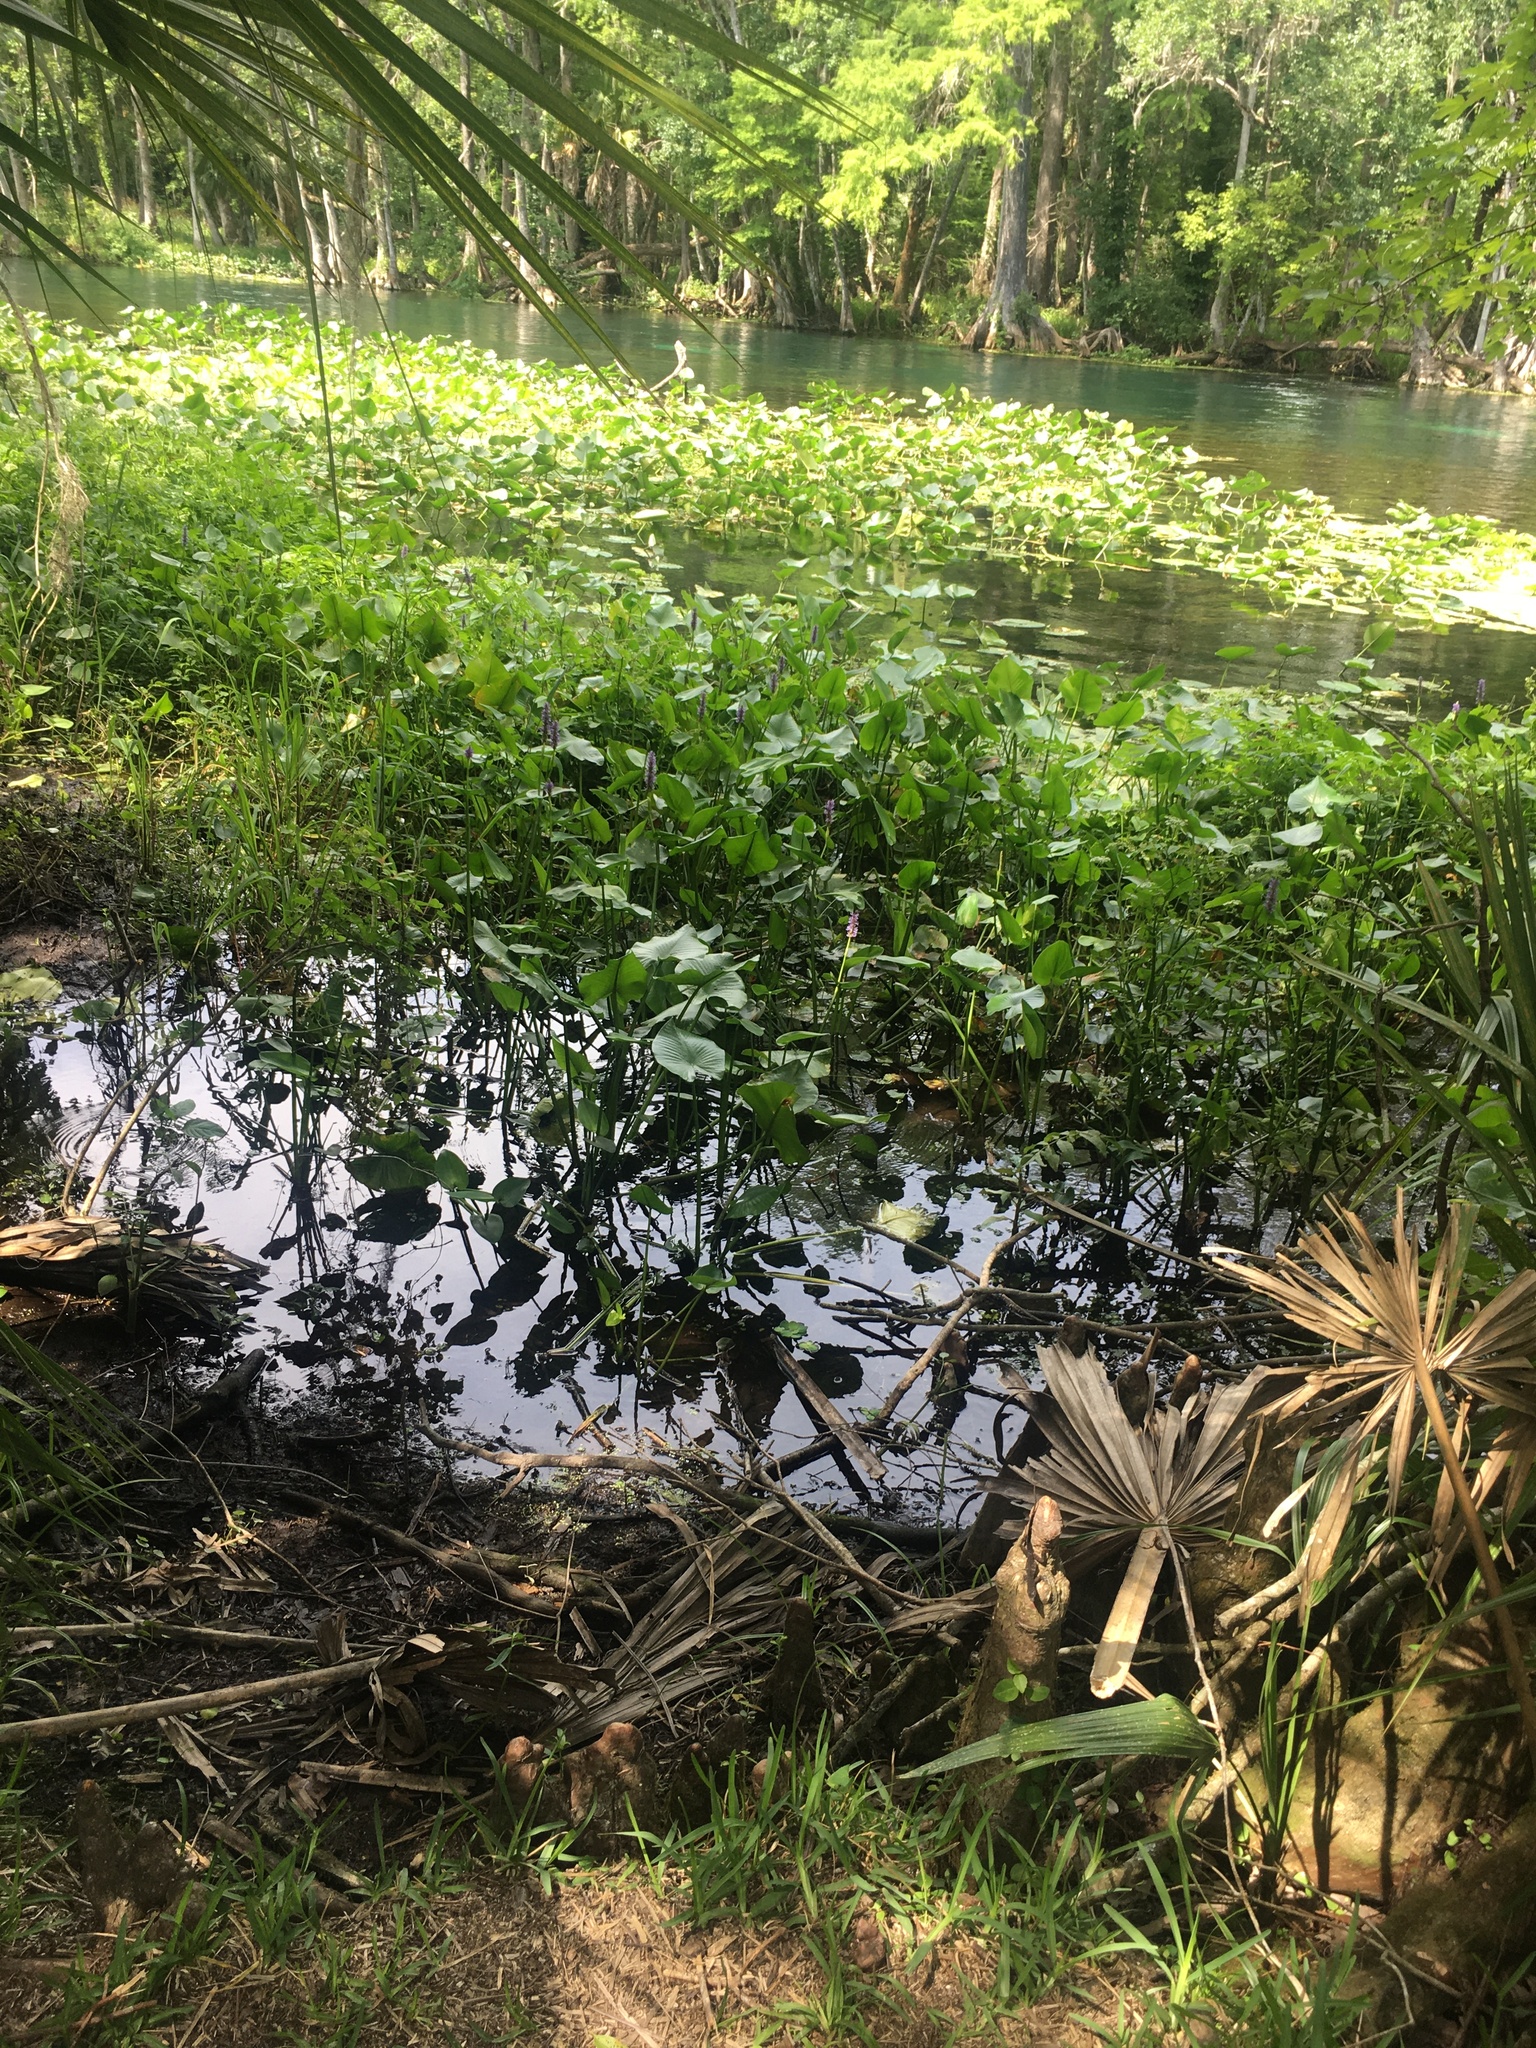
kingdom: Plantae
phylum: Tracheophyta
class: Liliopsida
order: Commelinales
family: Pontederiaceae
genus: Pontederia
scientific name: Pontederia cordata
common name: Pickerelweed
